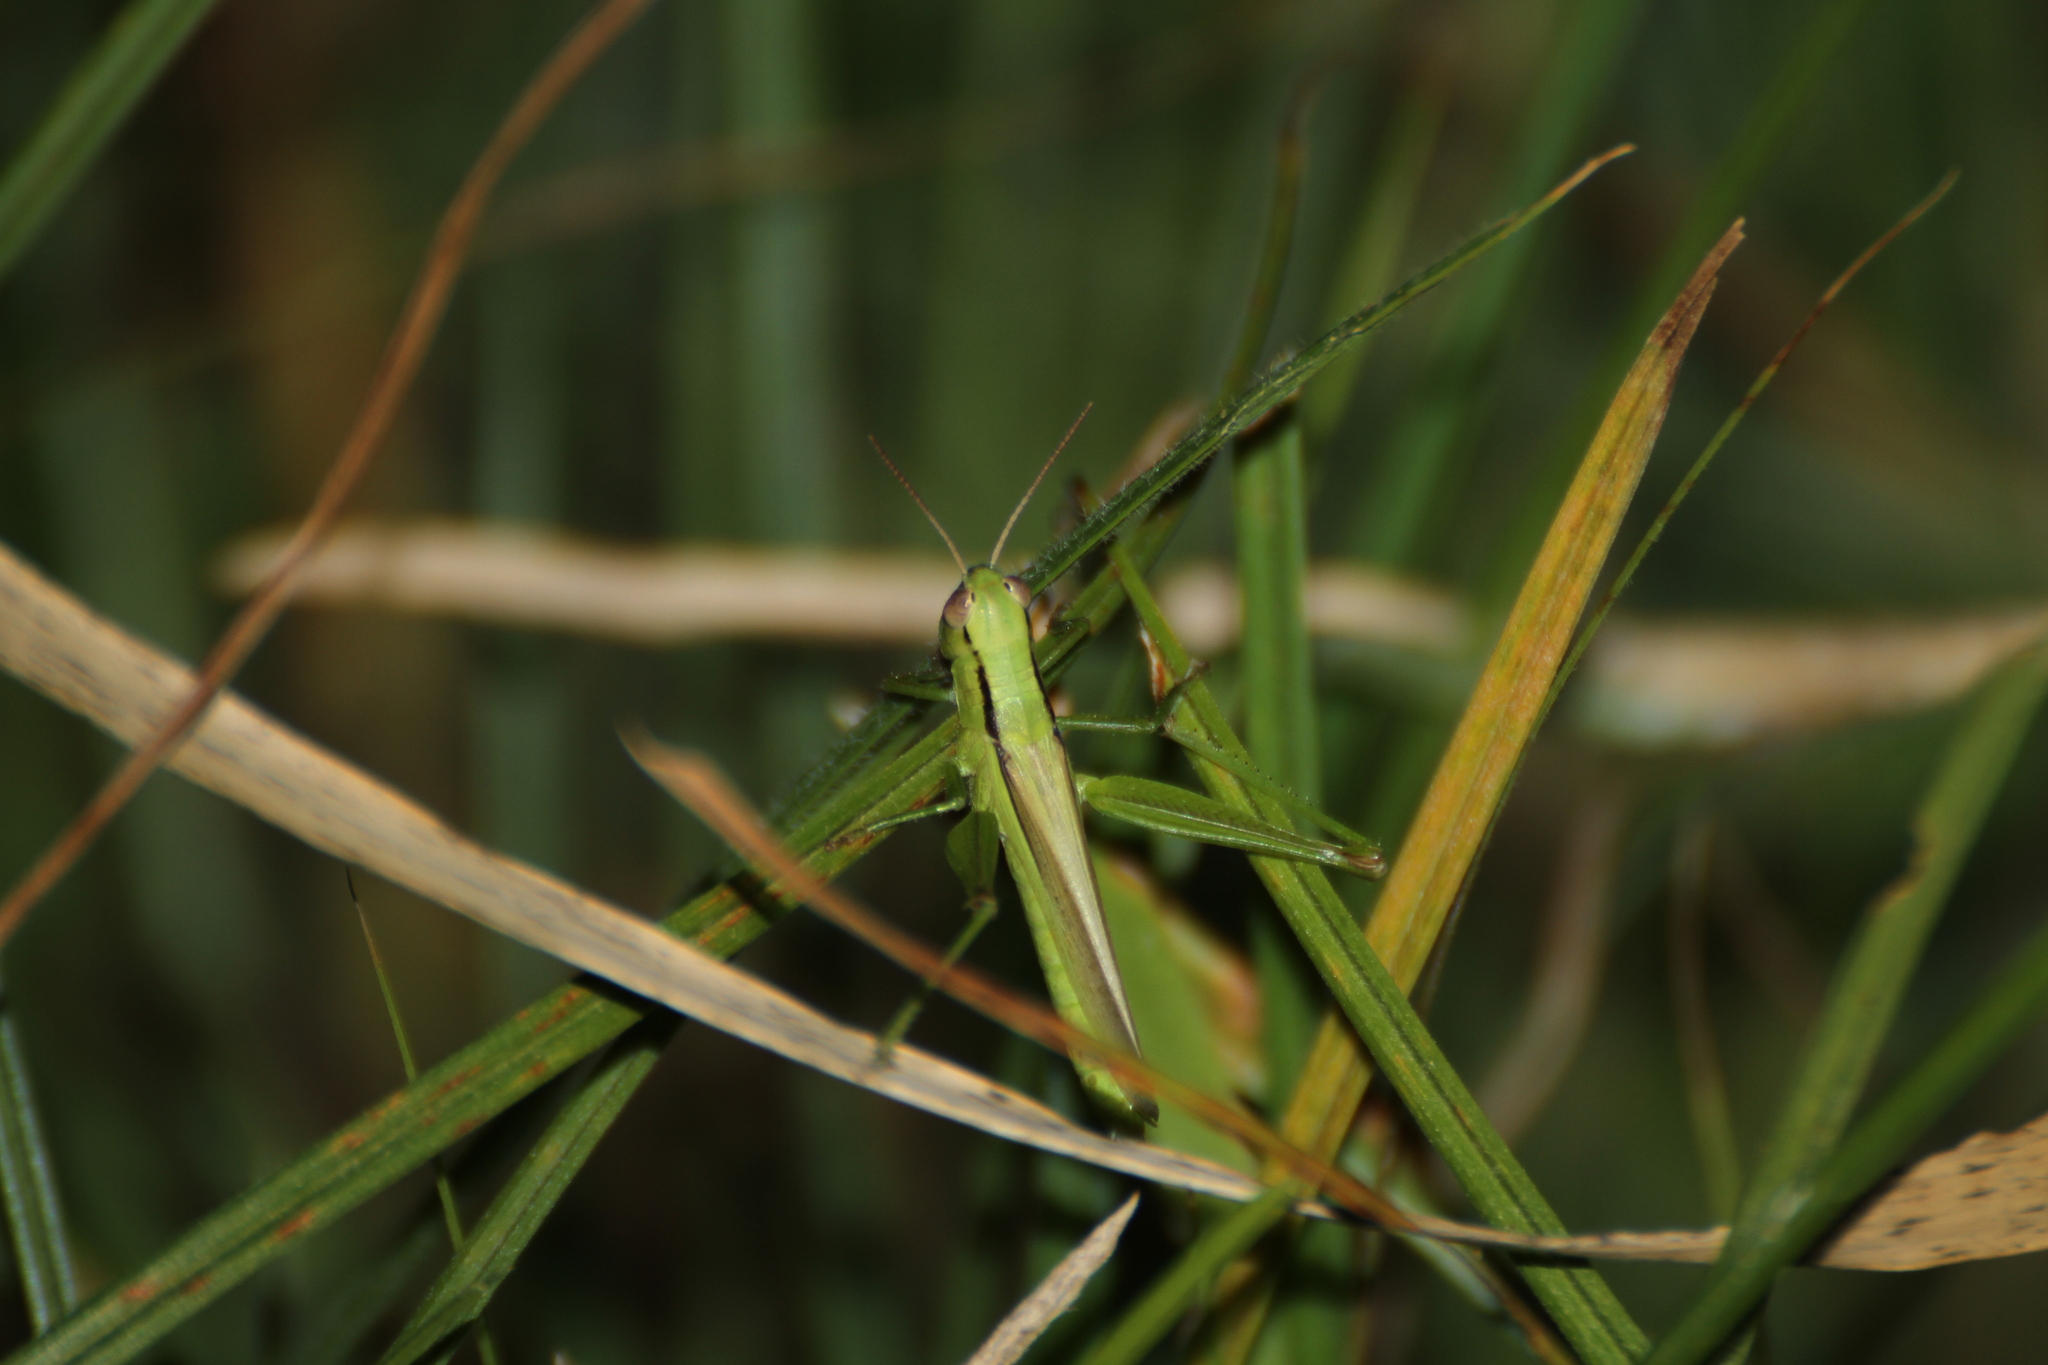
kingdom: Animalia
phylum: Arthropoda
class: Insecta
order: Orthoptera
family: Acrididae
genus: Mecostethus
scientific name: Mecostethus parapleurus
